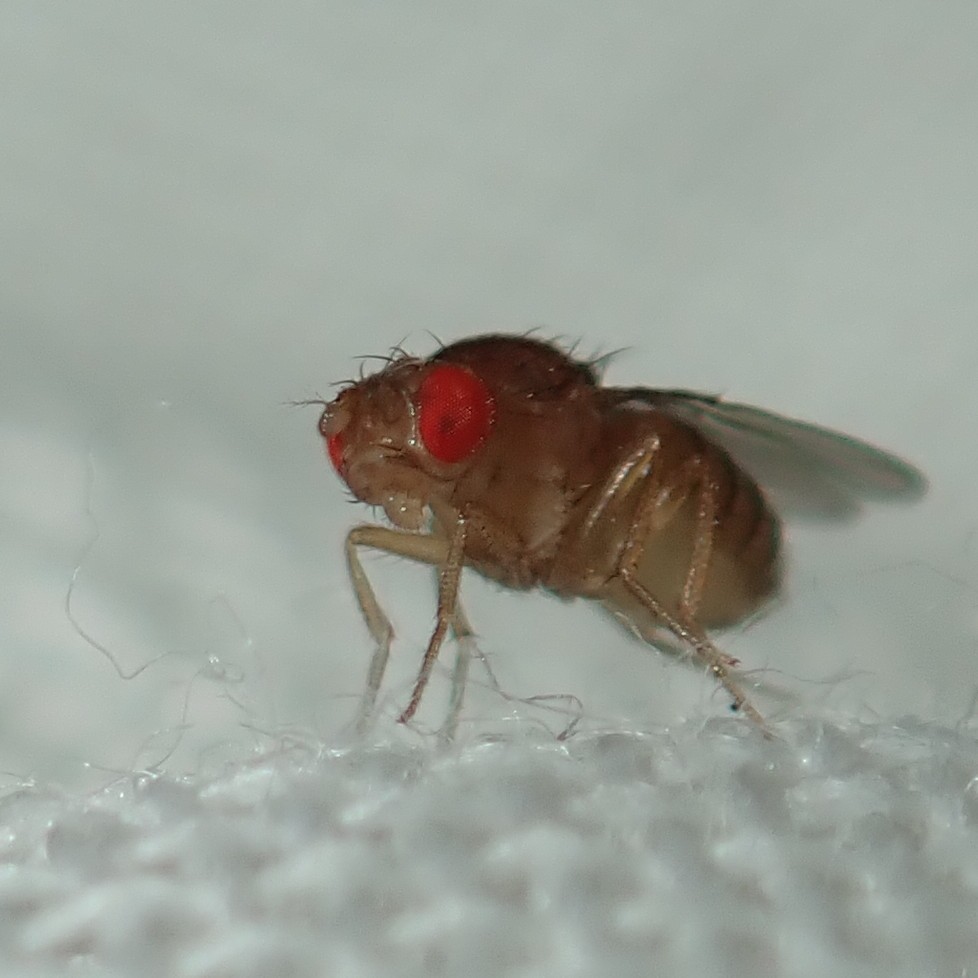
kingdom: Animalia
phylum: Arthropoda
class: Insecta
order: Diptera
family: Drosophilidae
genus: Drosophila
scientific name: Drosophila melanogaster
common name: Pomace fly
